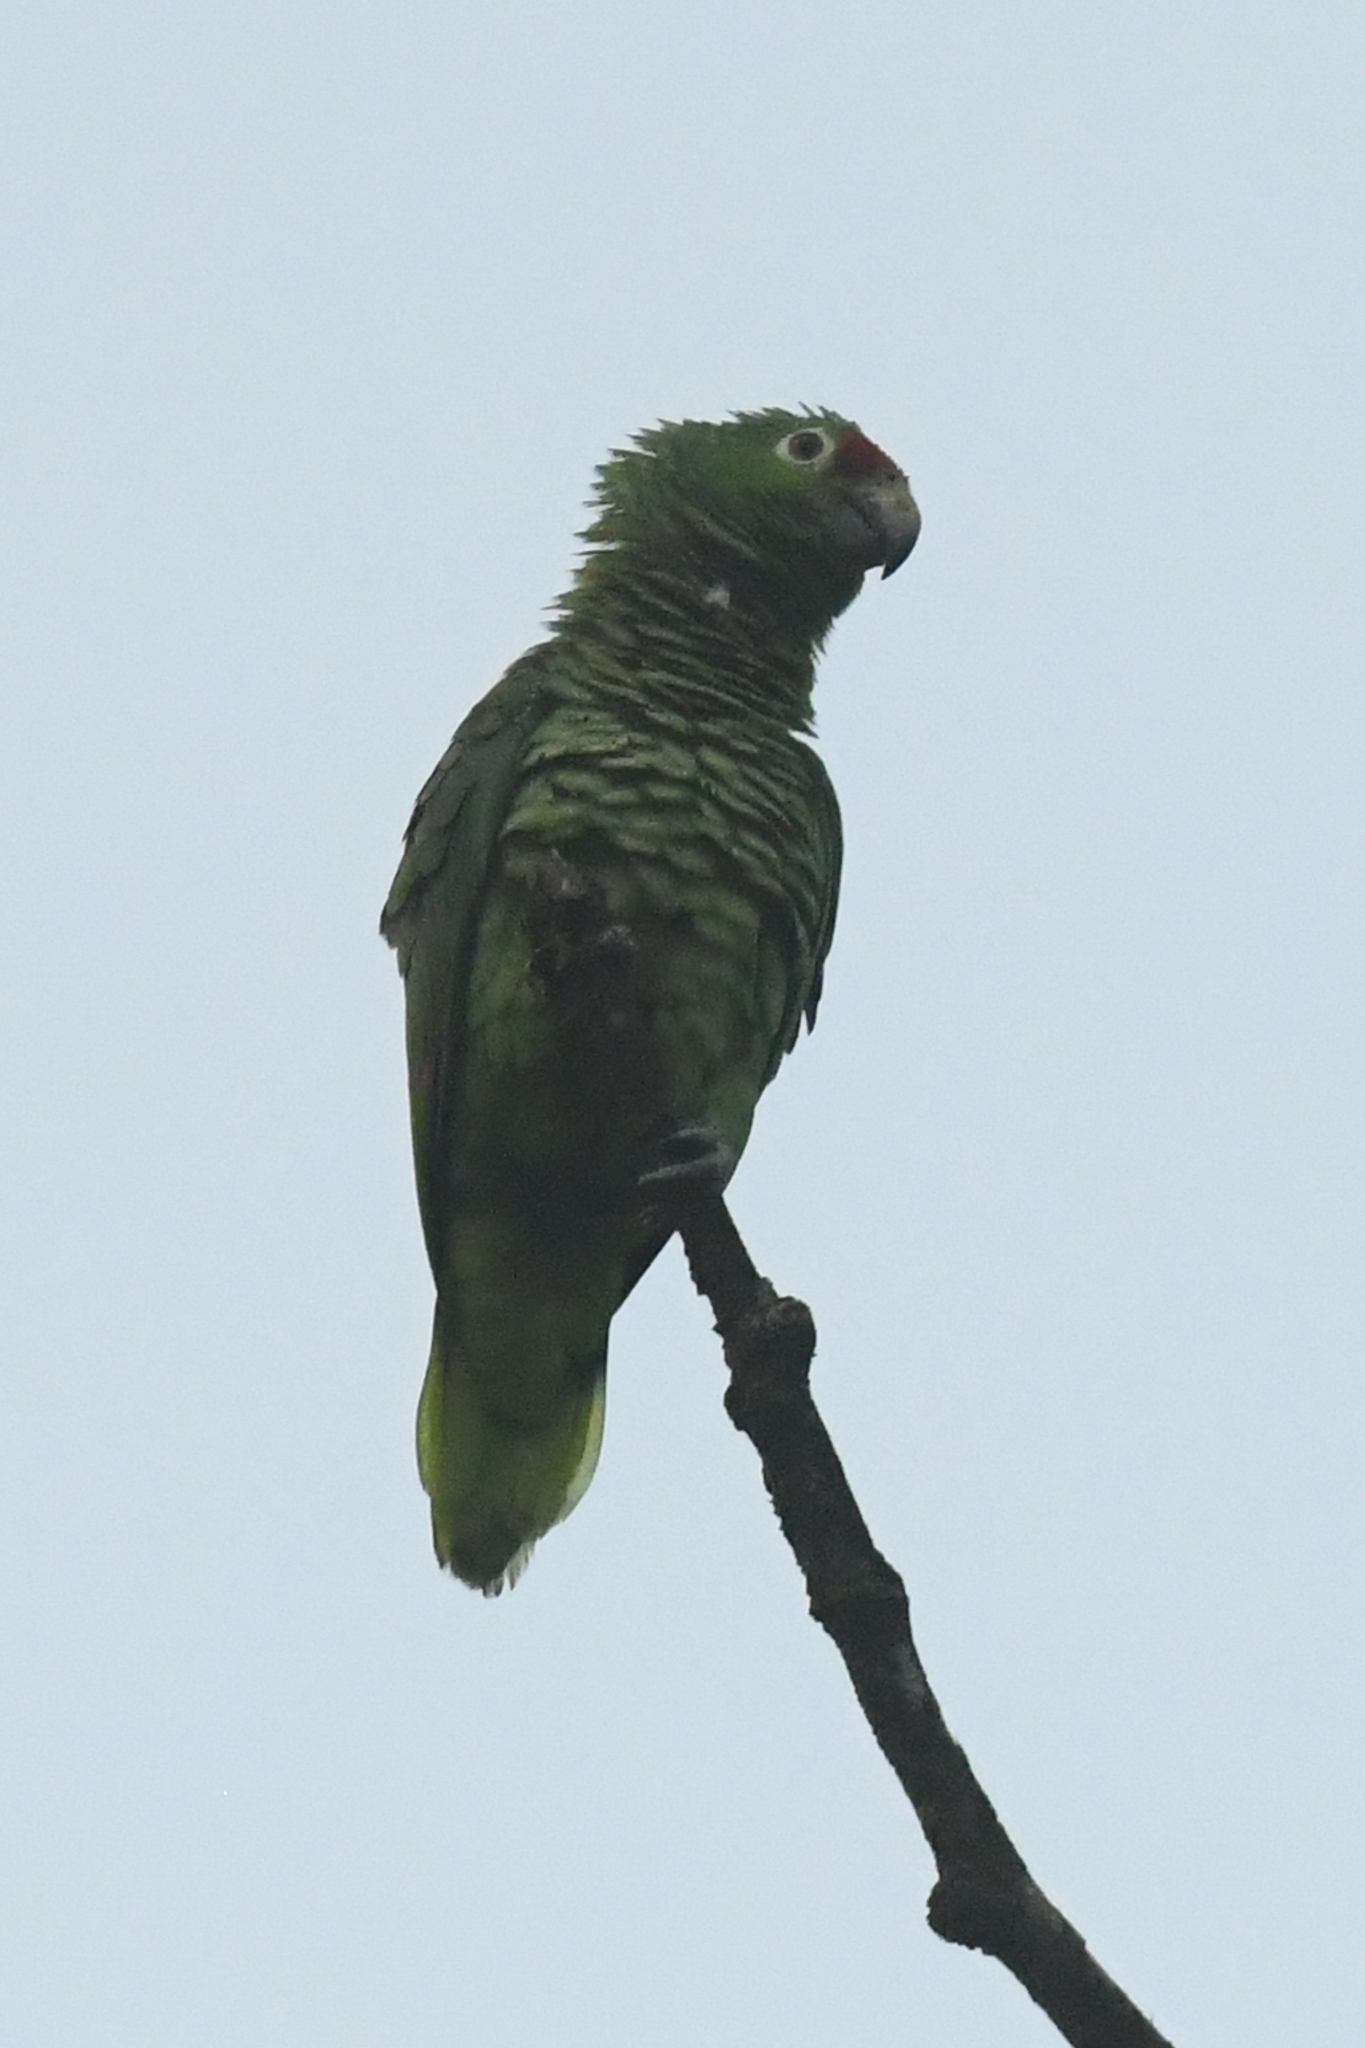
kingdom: Animalia
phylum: Chordata
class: Aves
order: Psittaciformes
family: Psittacidae
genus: Amazona
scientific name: Amazona autumnalis
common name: Red-lored amazon
